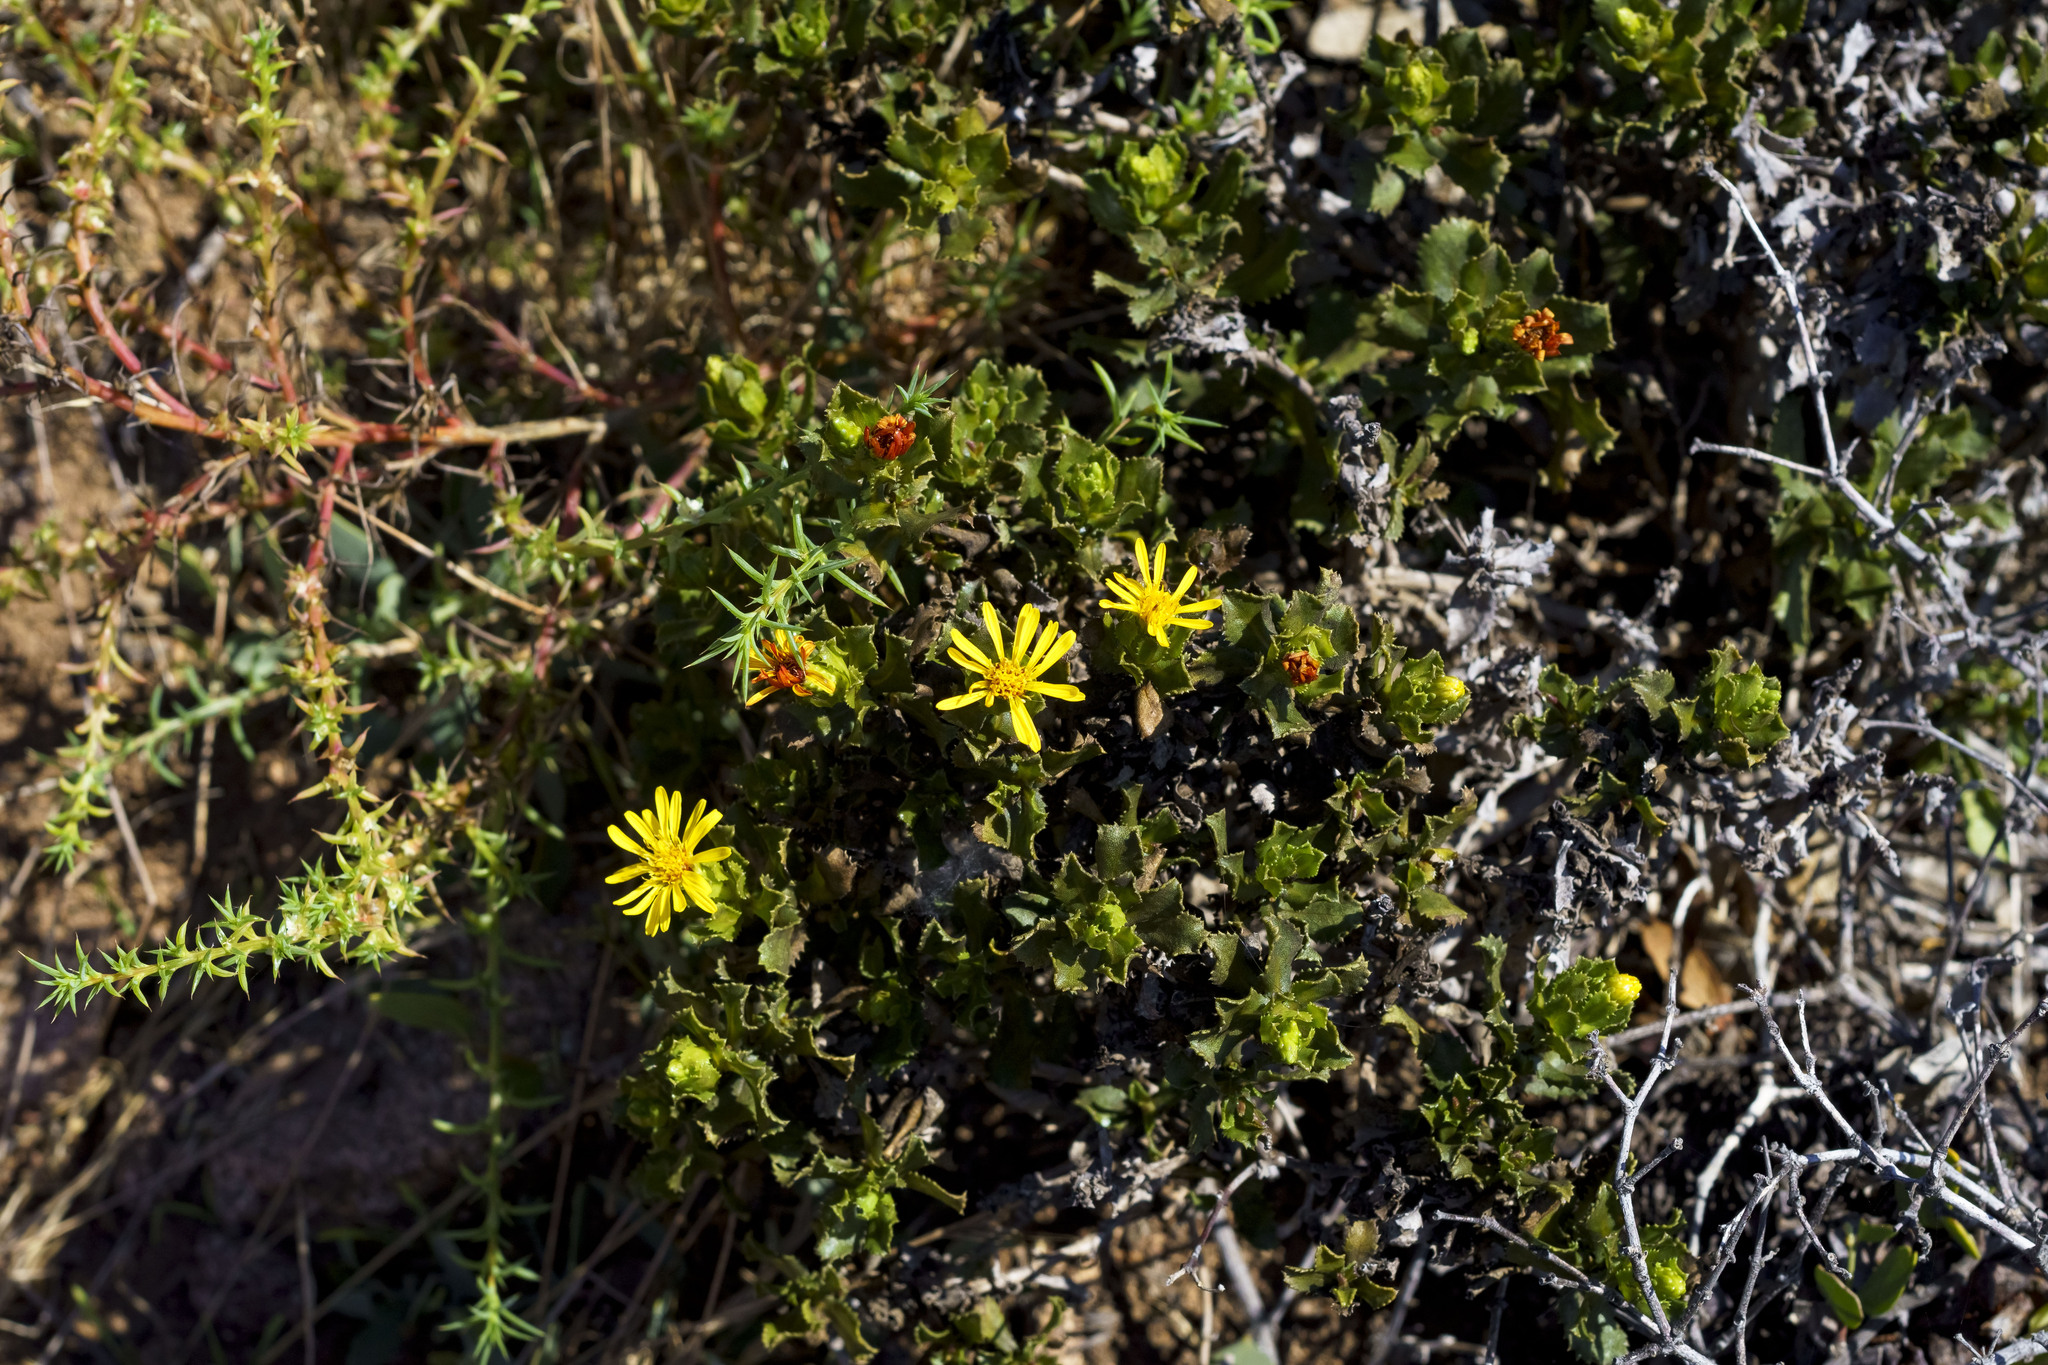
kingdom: Plantae
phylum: Tracheophyta
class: Magnoliopsida
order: Asterales
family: Asteraceae
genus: Hazardia
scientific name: Hazardia berberidis
